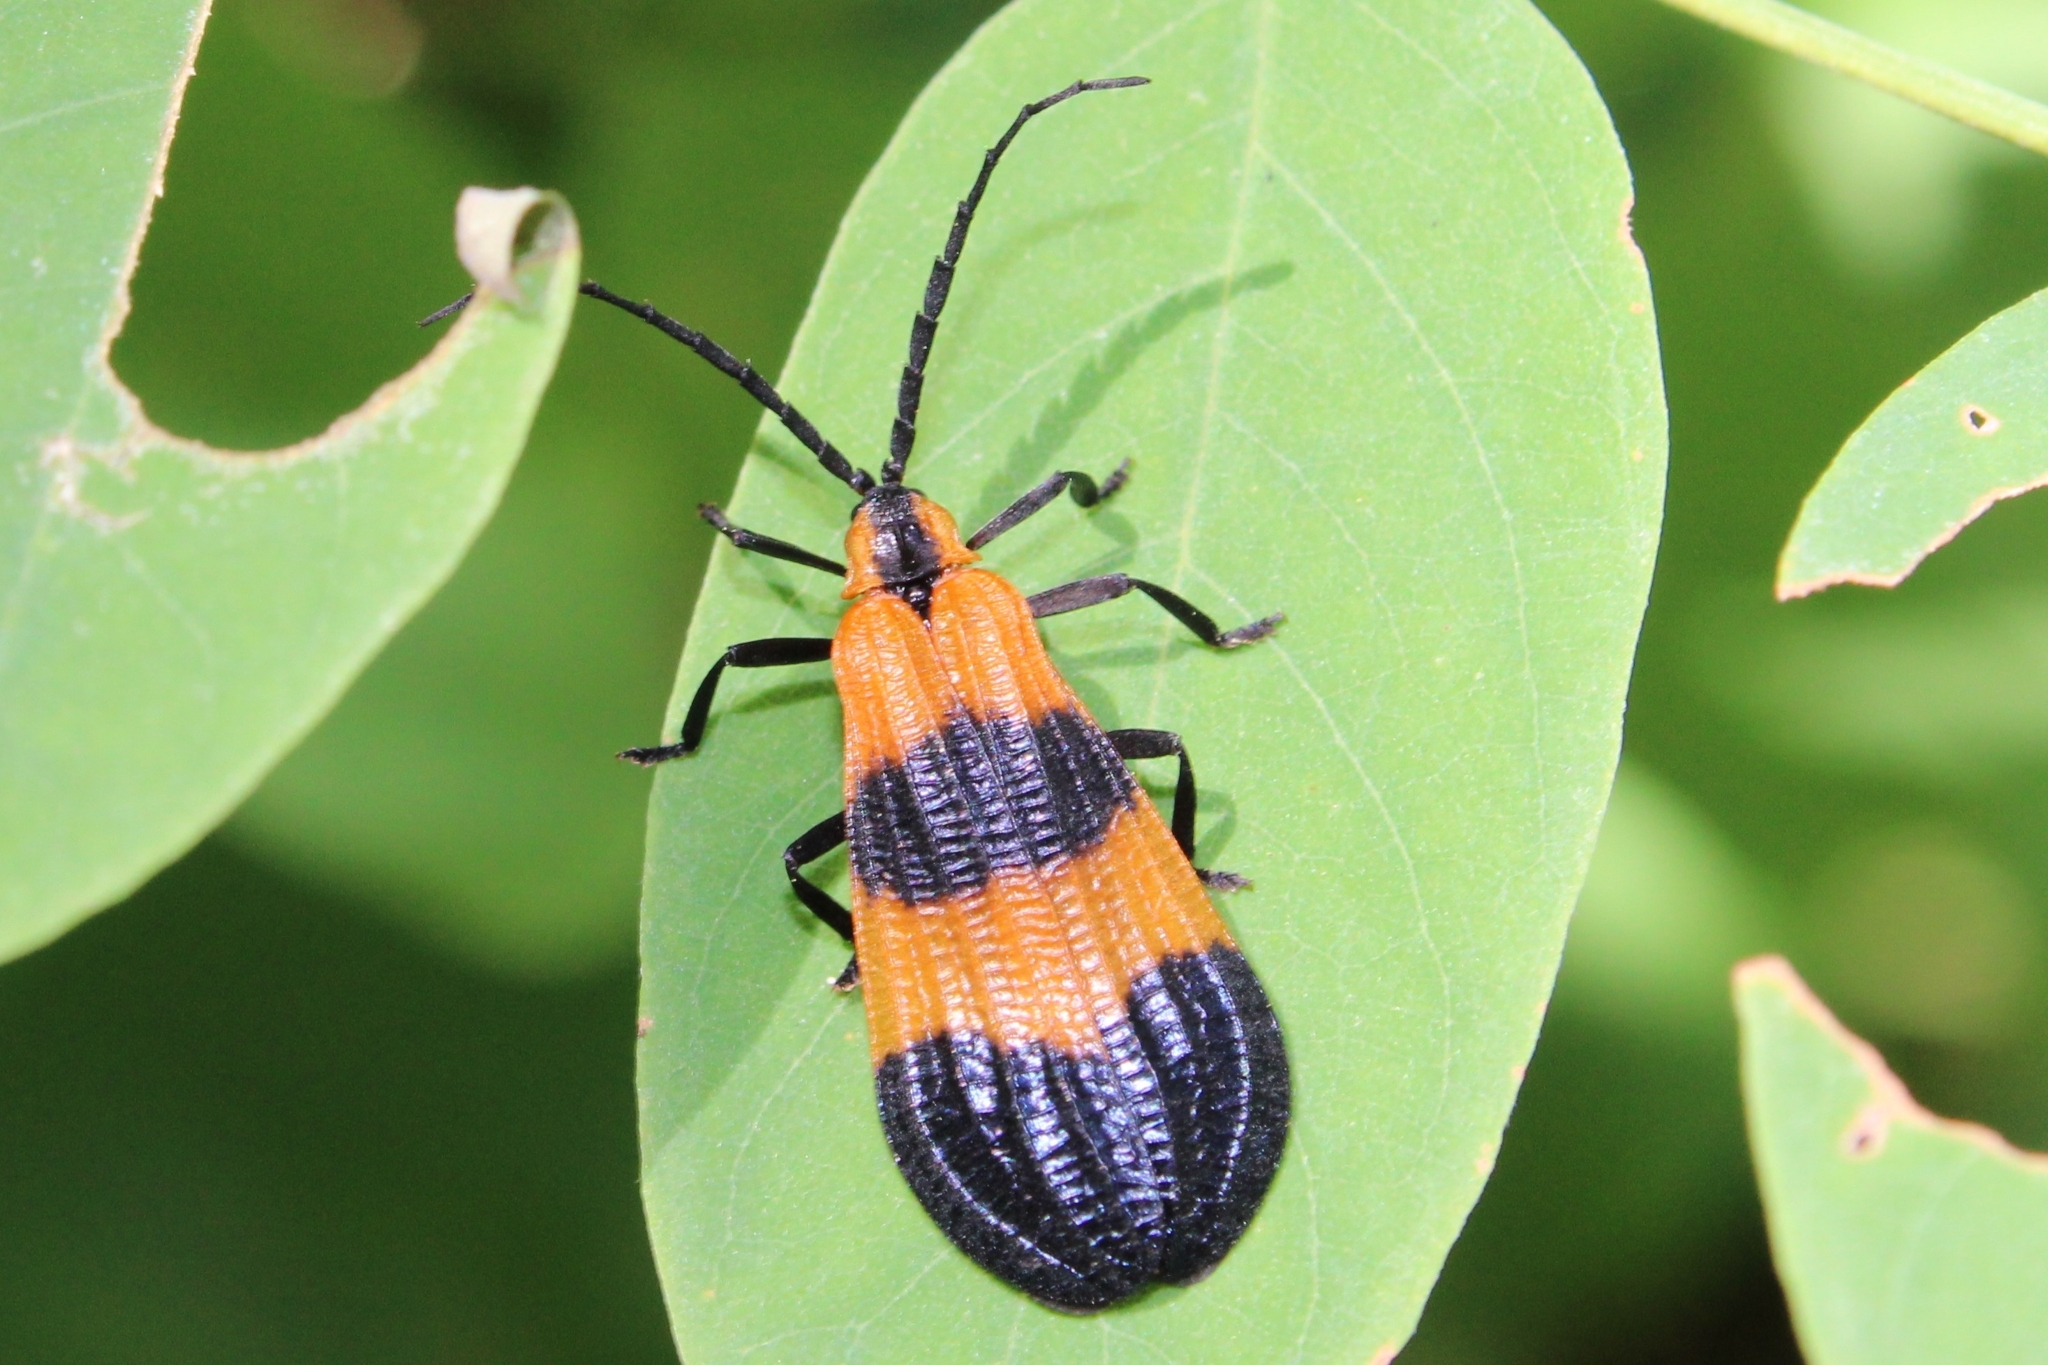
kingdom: Animalia
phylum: Arthropoda
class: Insecta
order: Coleoptera
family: Lycidae
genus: Calopteron
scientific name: Calopteron terminale
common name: End band net-winged beetle
